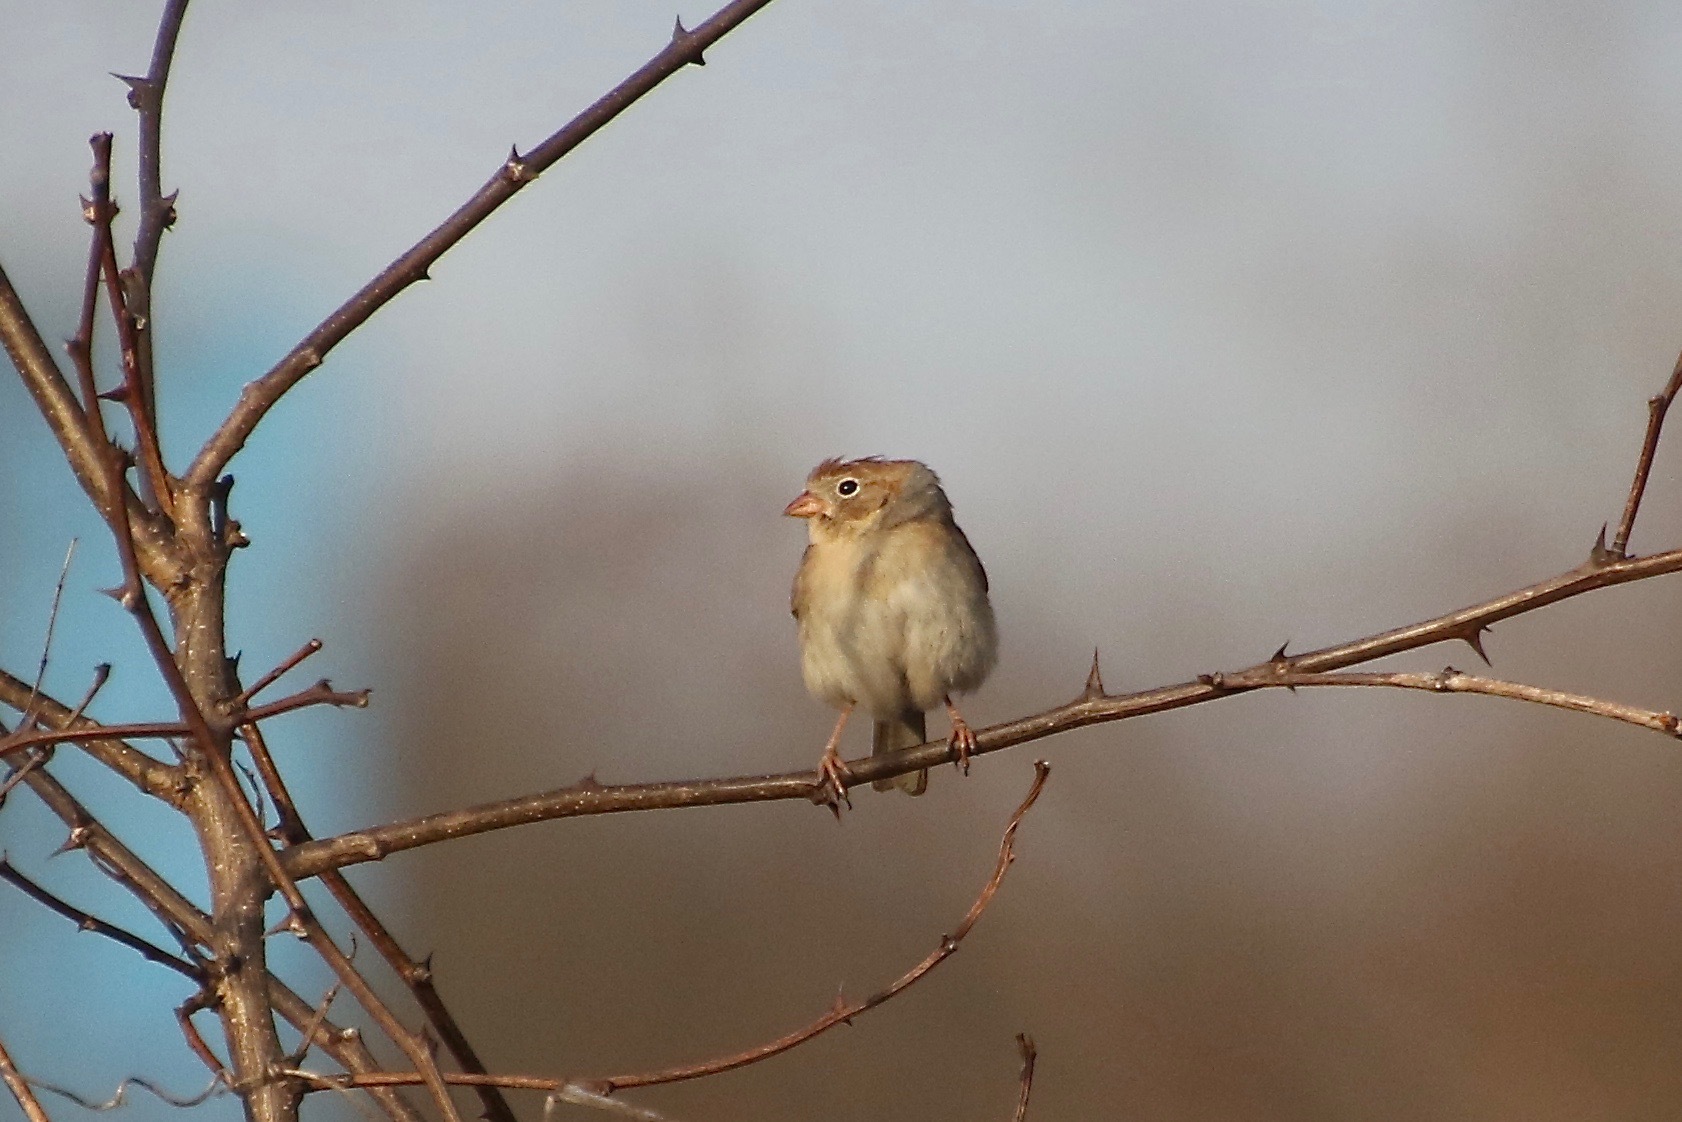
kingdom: Animalia
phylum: Chordata
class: Aves
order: Passeriformes
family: Passerellidae
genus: Spizella
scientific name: Spizella pusilla
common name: Field sparrow
